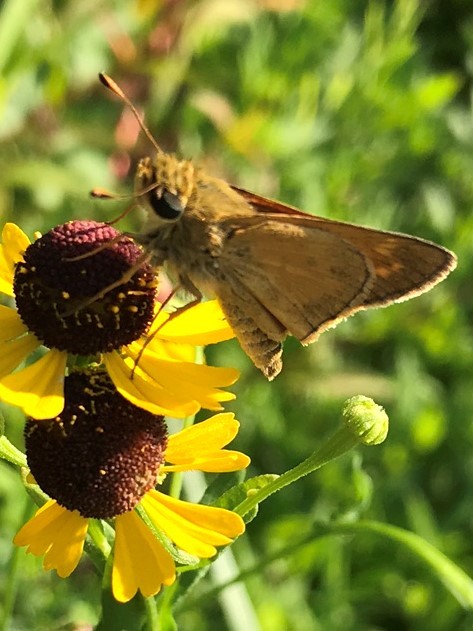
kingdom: Animalia
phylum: Arthropoda
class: Insecta
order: Lepidoptera
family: Hesperiidae
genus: Atalopedes
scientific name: Atalopedes
